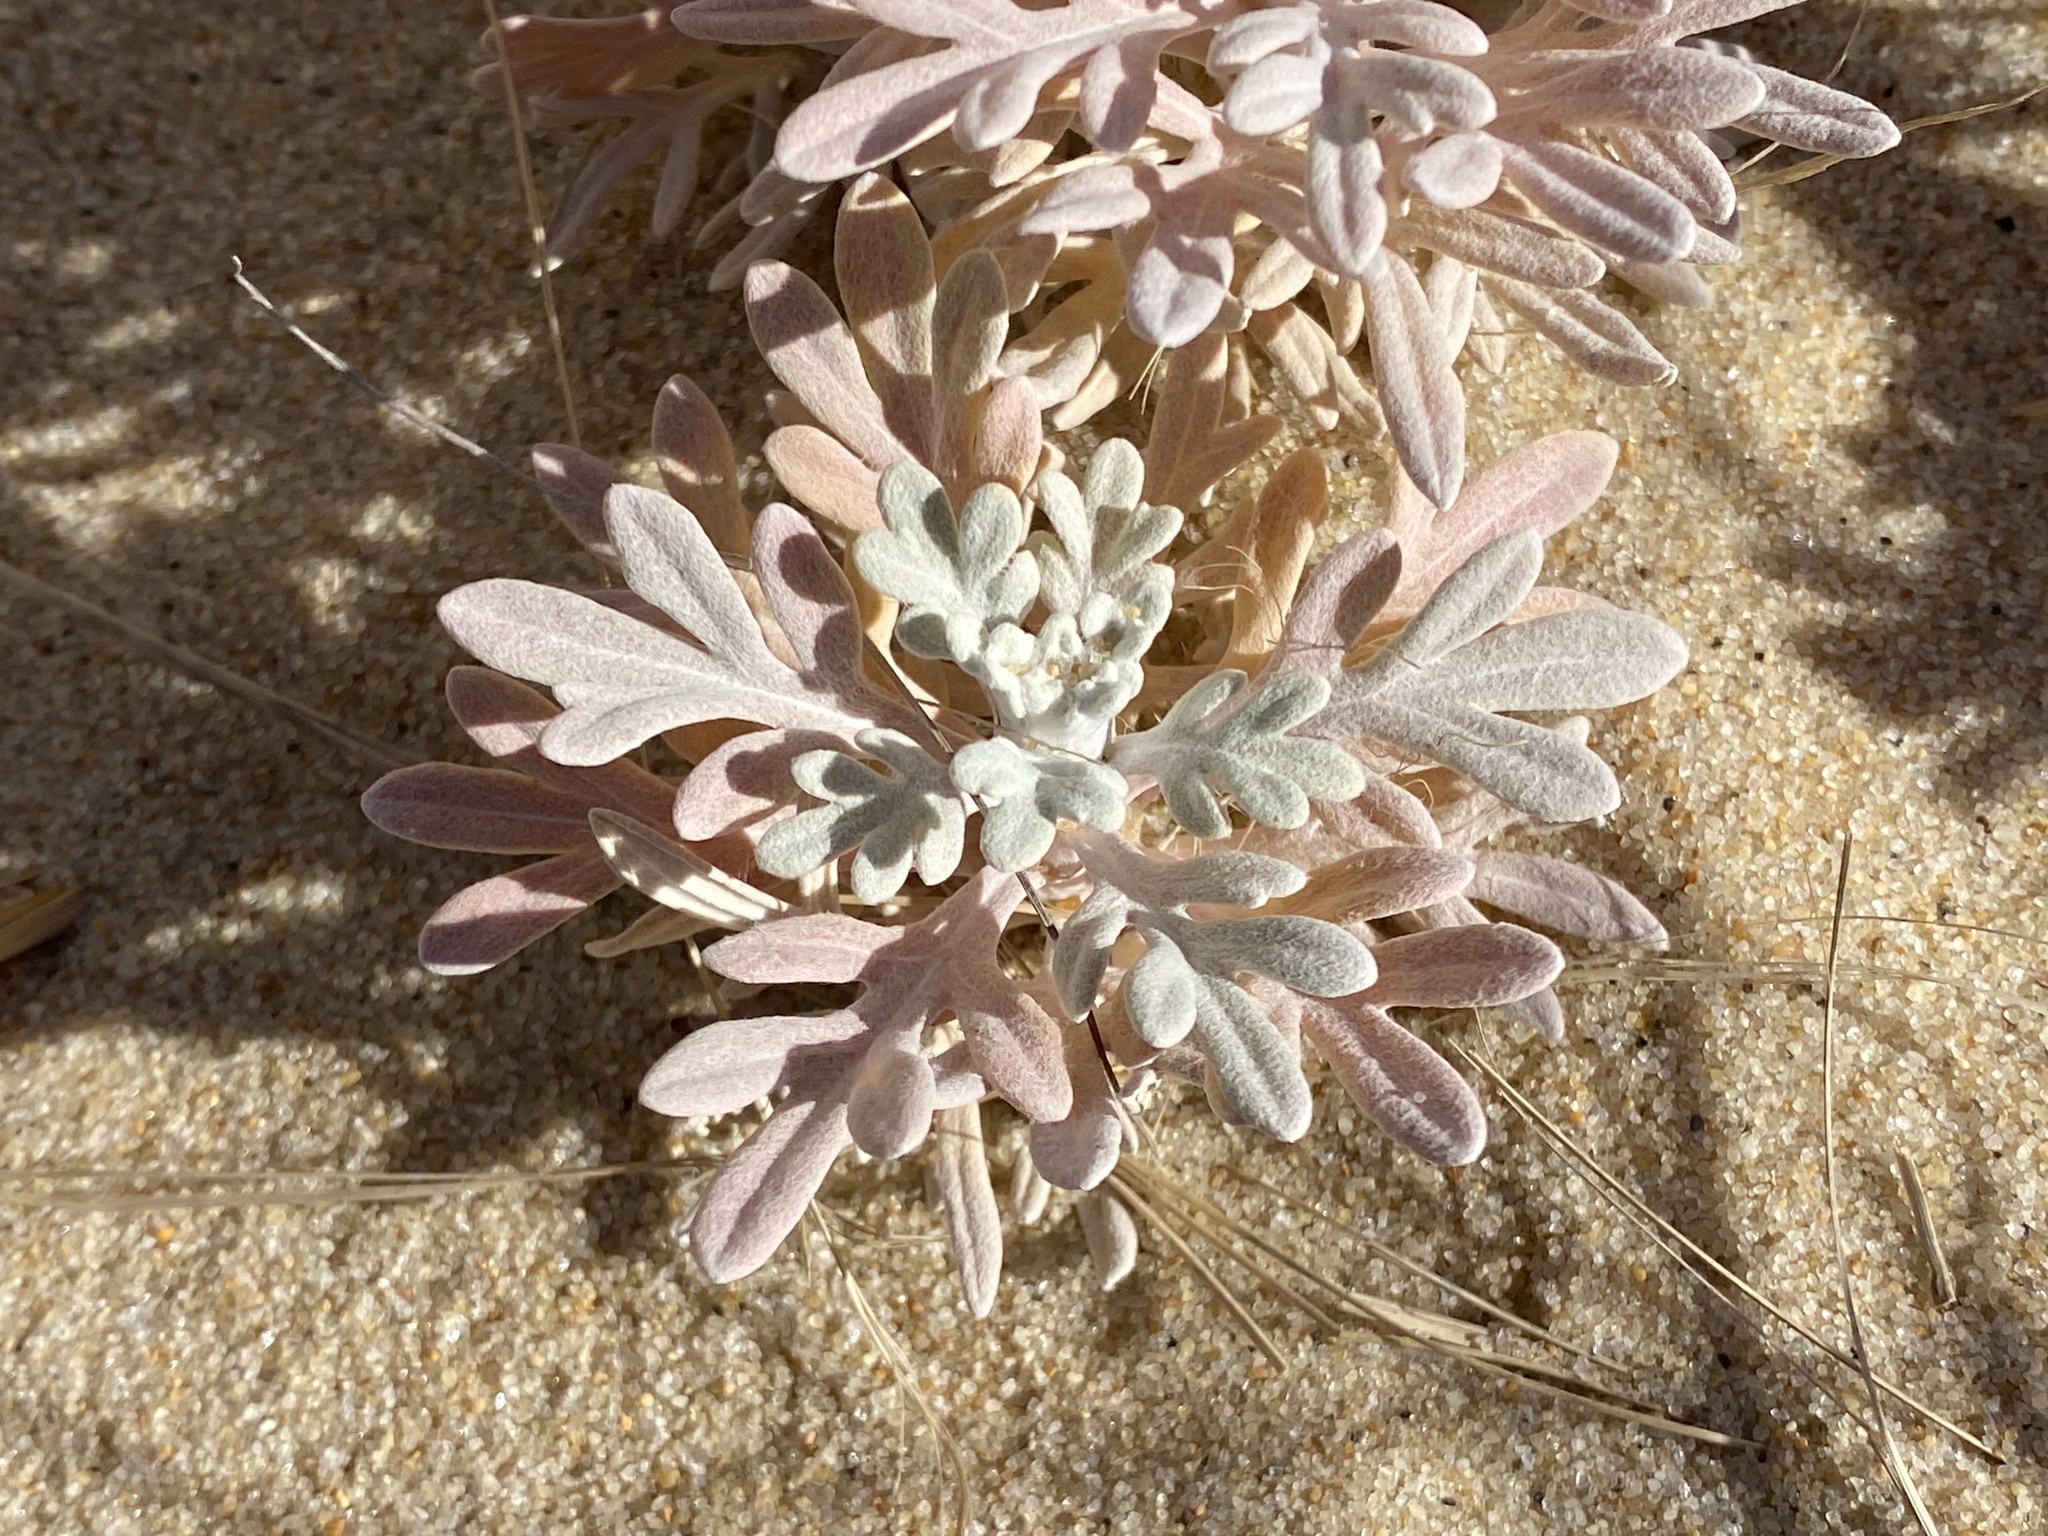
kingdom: Plantae
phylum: Tracheophyta
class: Magnoliopsida
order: Asterales
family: Asteraceae
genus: Artemisia
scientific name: Artemisia stelleriana
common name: Beach wormwood
